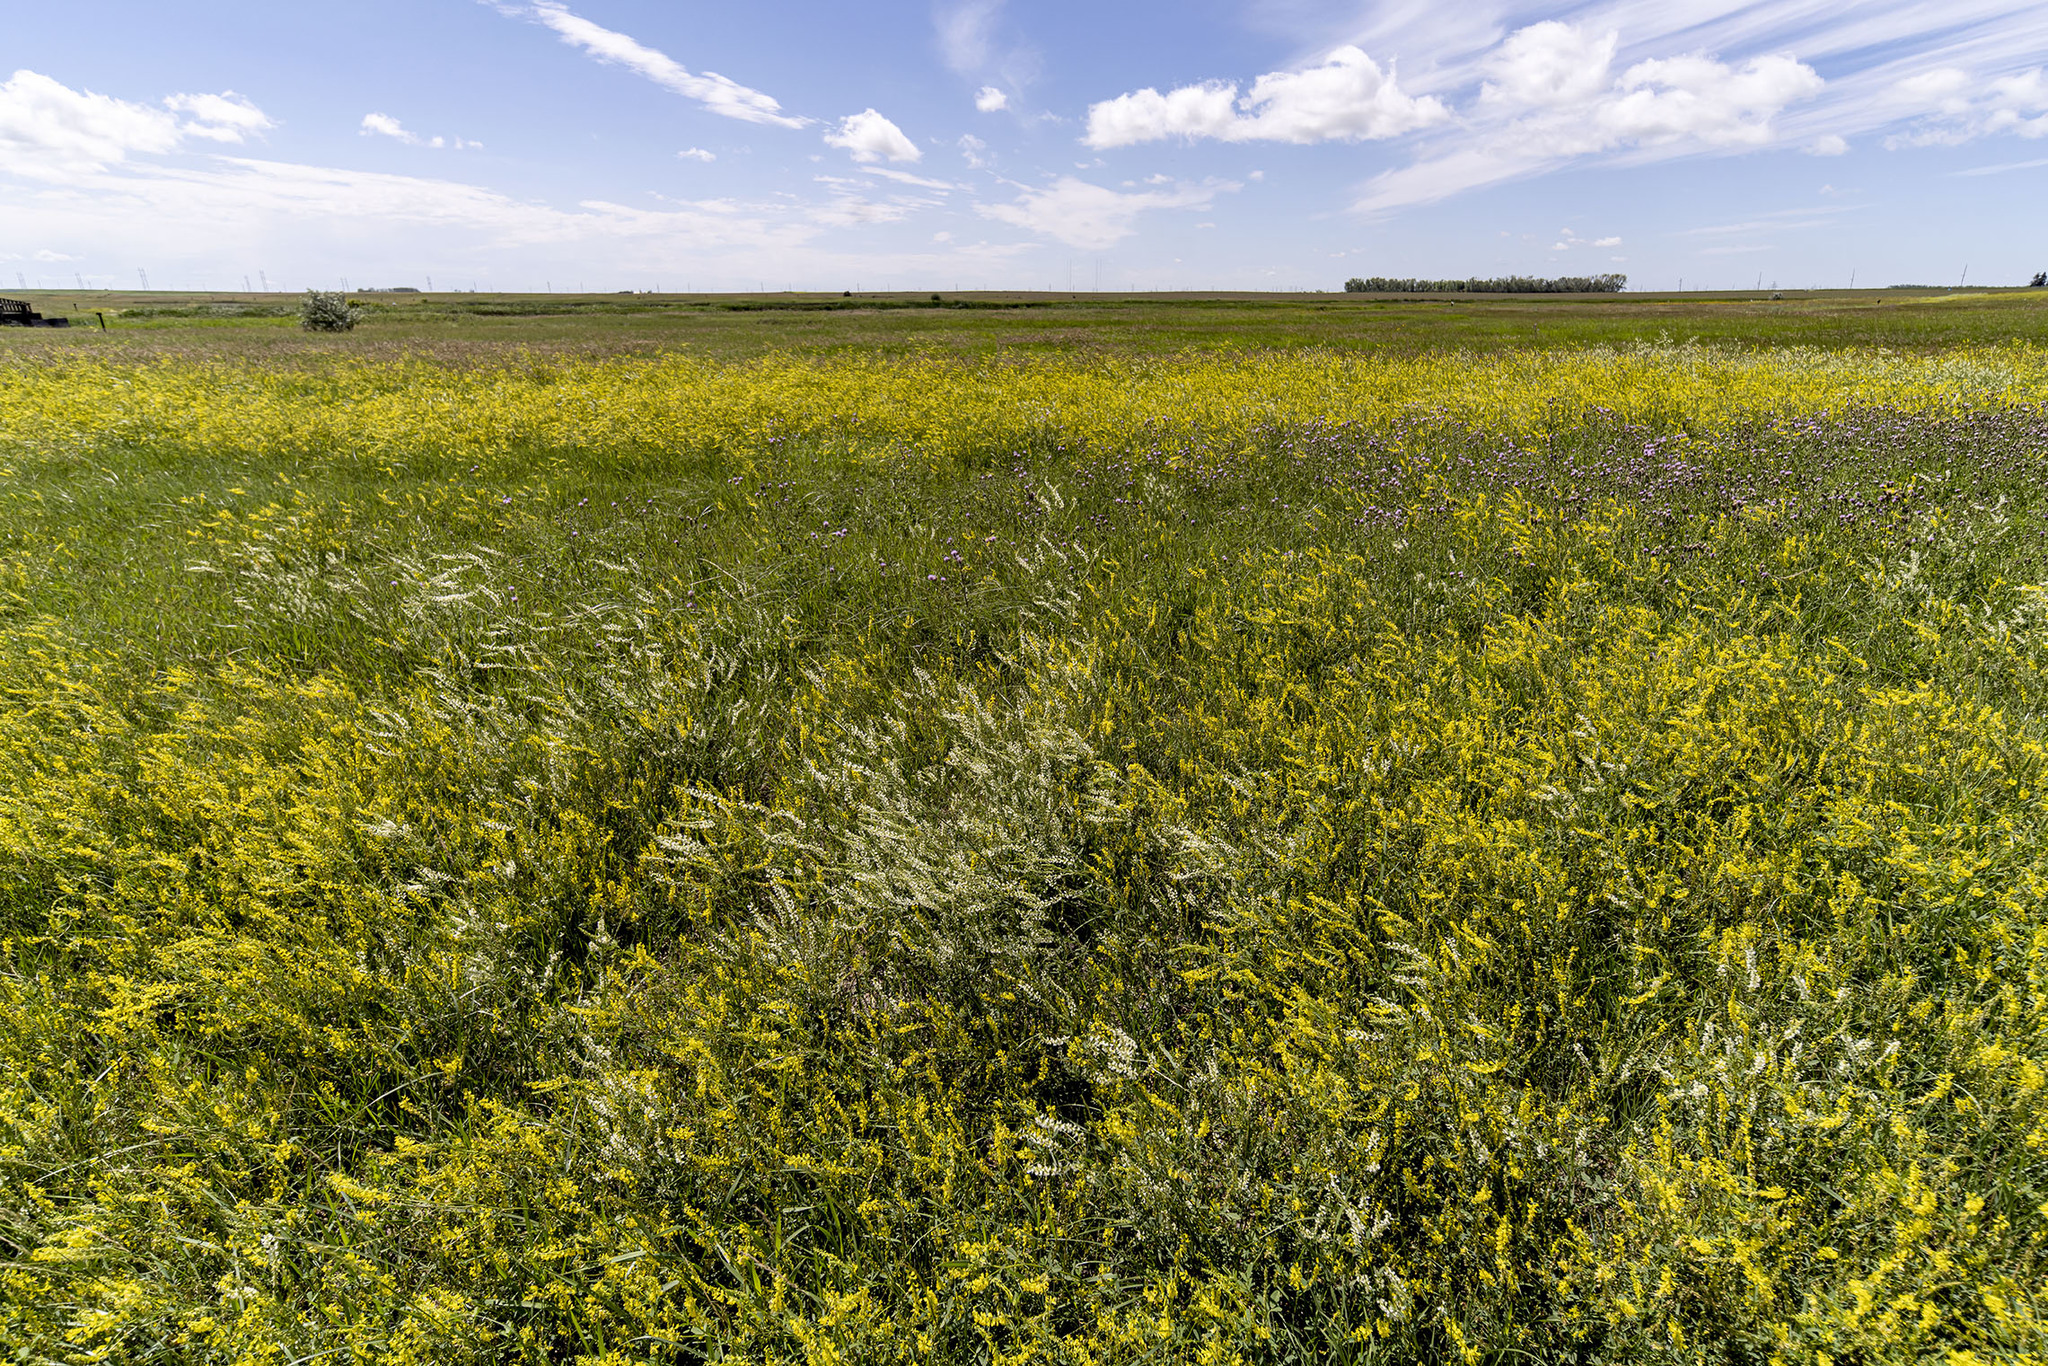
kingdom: Plantae
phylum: Tracheophyta
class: Magnoliopsida
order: Fabales
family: Fabaceae
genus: Melilotus
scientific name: Melilotus officinalis
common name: Sweetclover
